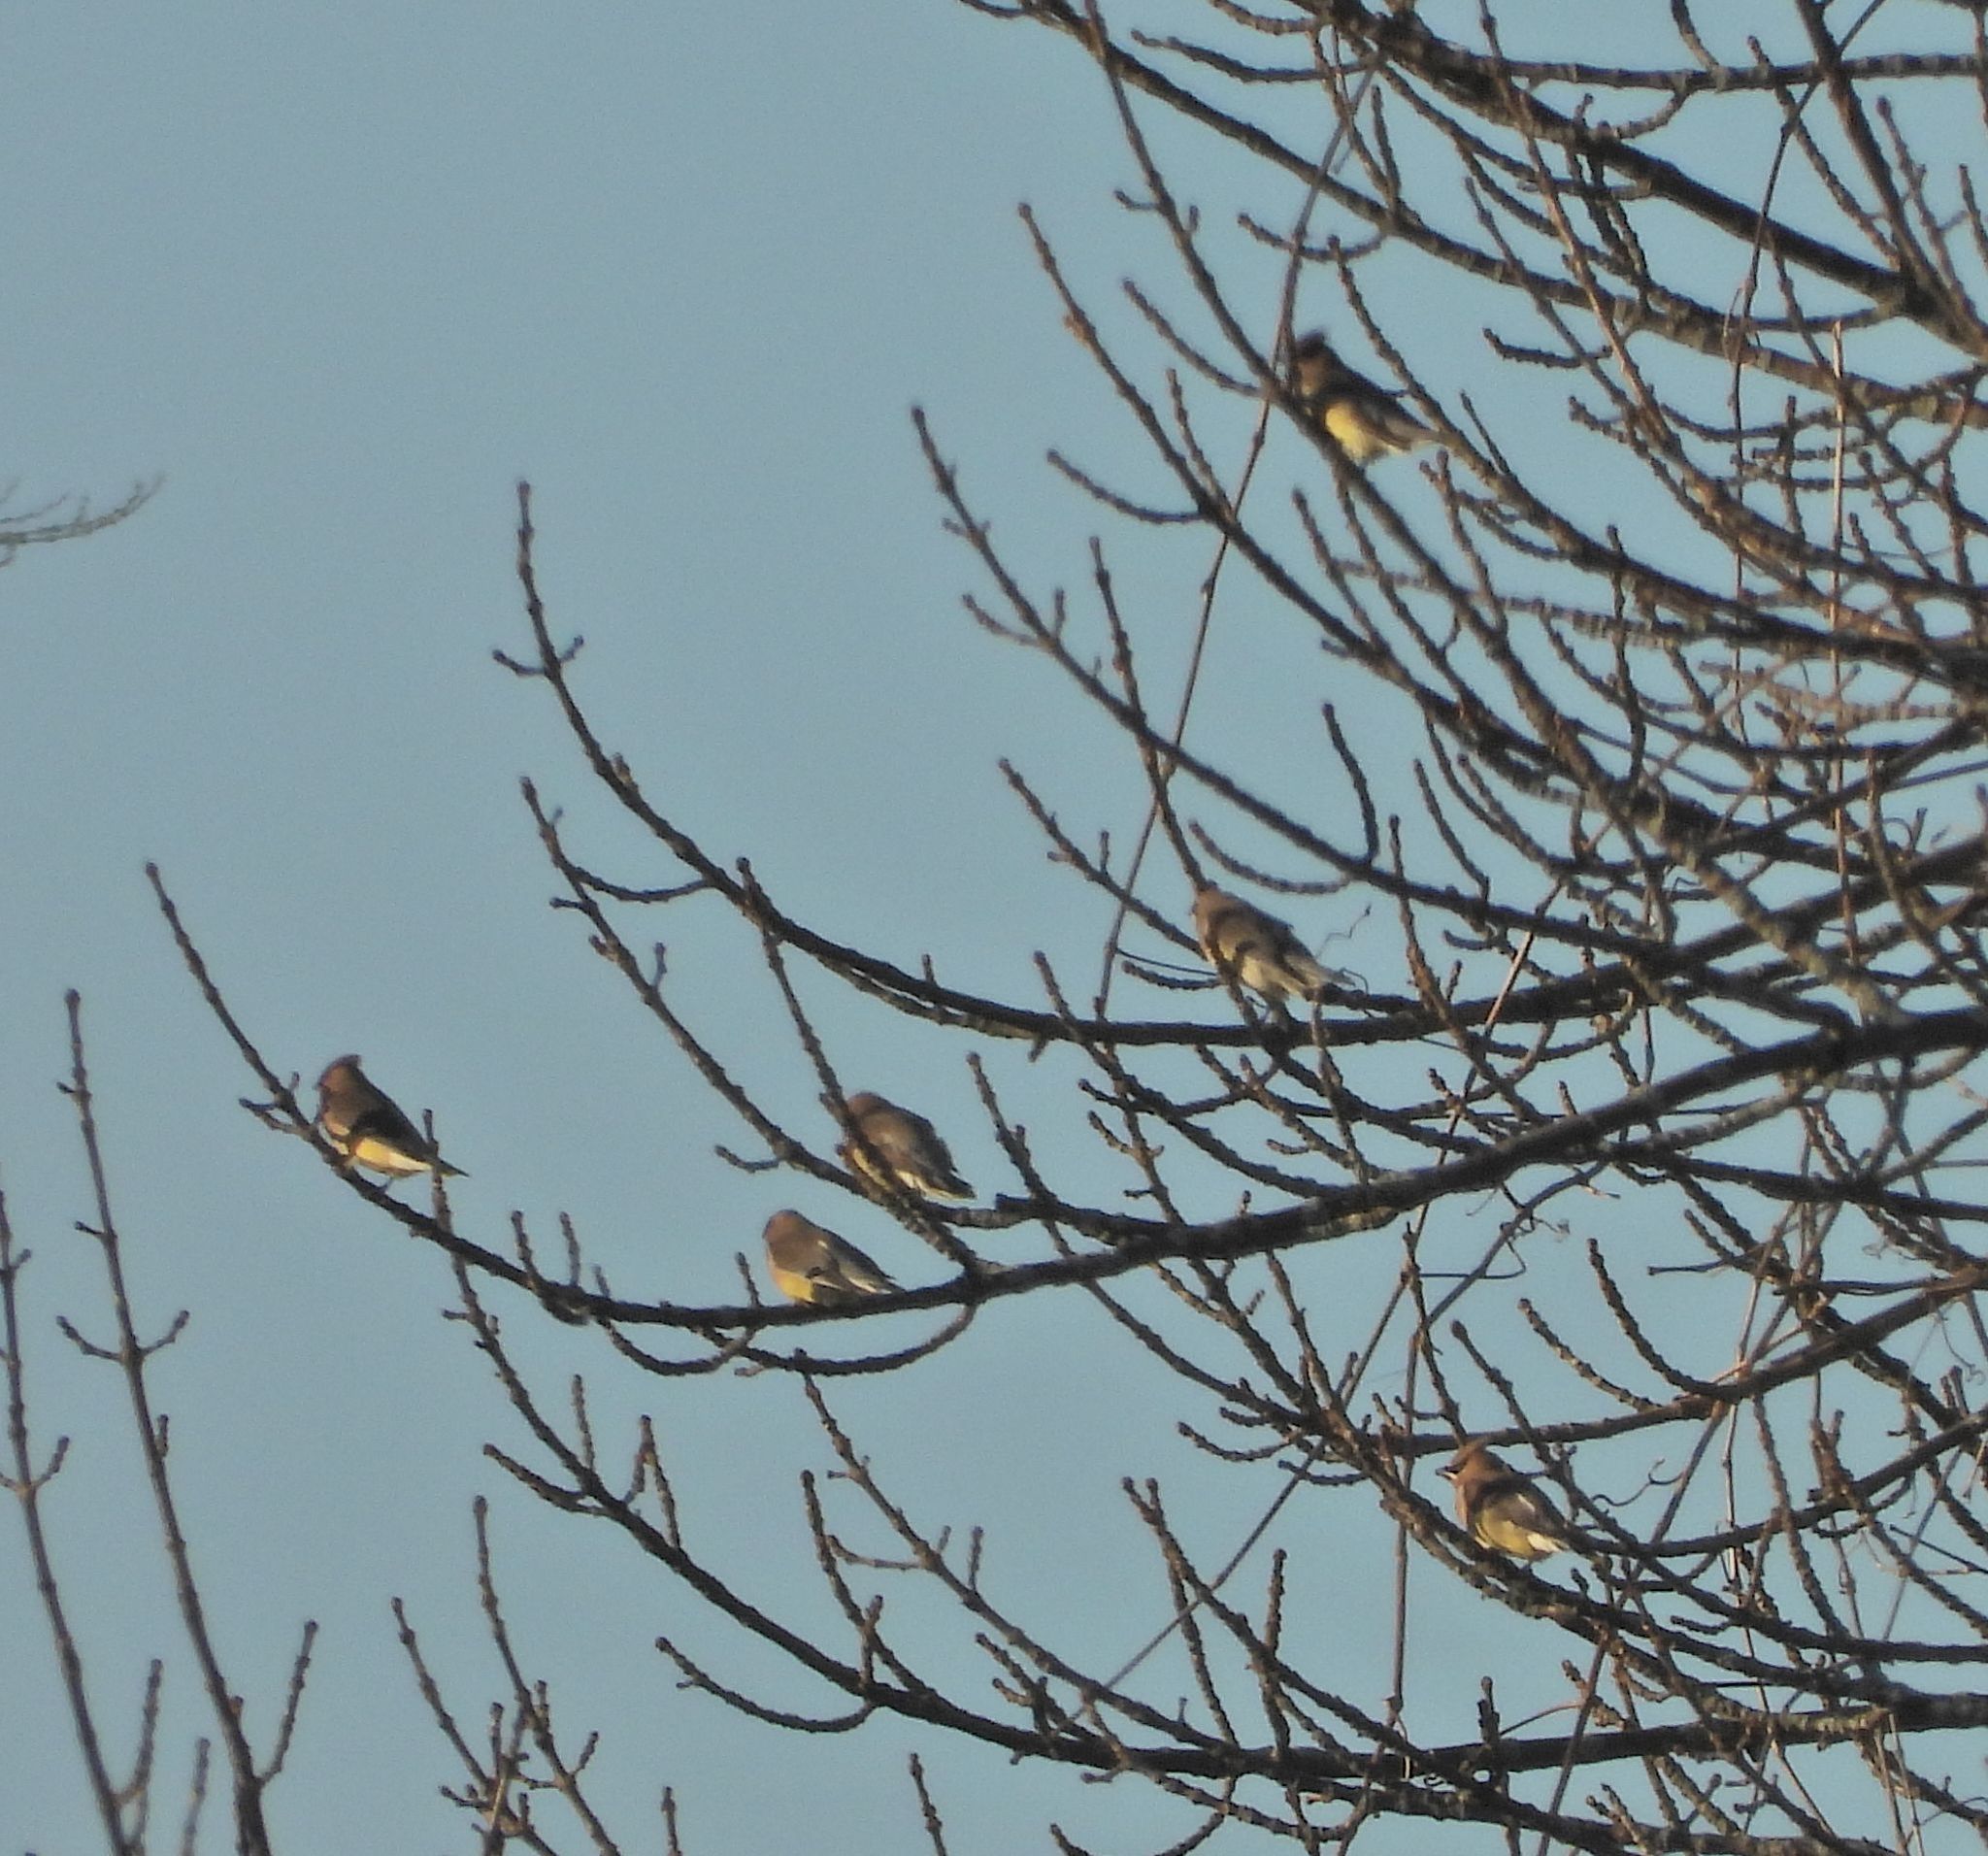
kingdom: Animalia
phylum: Chordata
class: Aves
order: Passeriformes
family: Bombycillidae
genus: Bombycilla
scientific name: Bombycilla cedrorum
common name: Cedar waxwing
